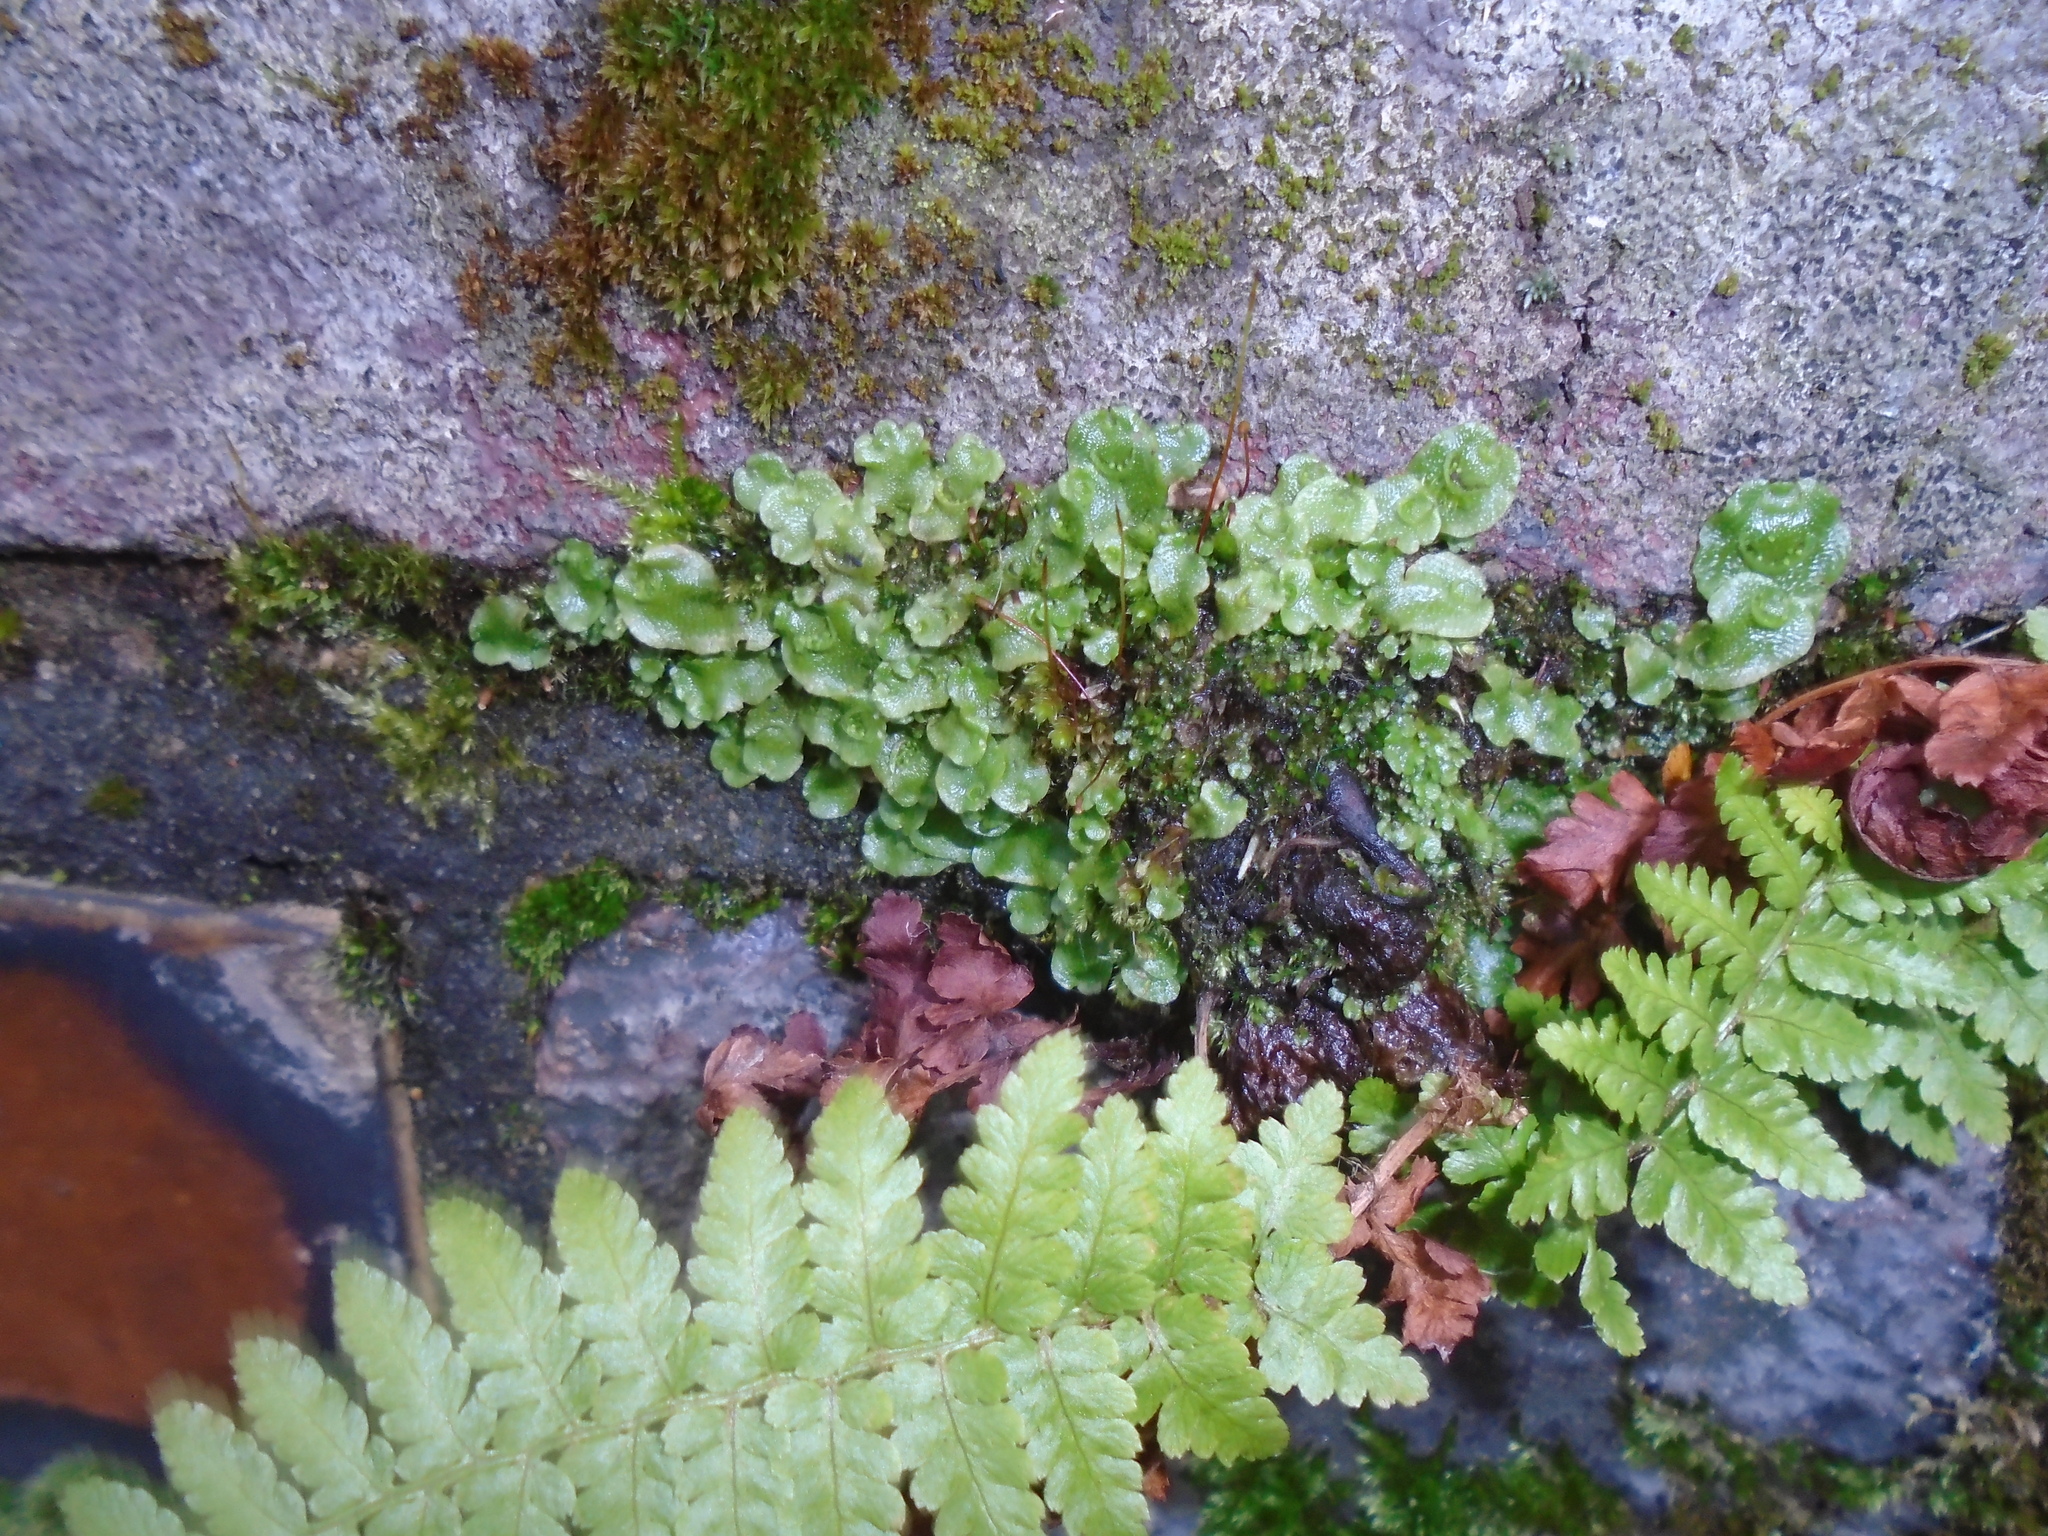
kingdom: Plantae
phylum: Marchantiophyta
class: Marchantiopsida
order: Lunulariales
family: Lunulariaceae
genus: Lunularia
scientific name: Lunularia cruciata
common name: Crescent-cup liverwort
